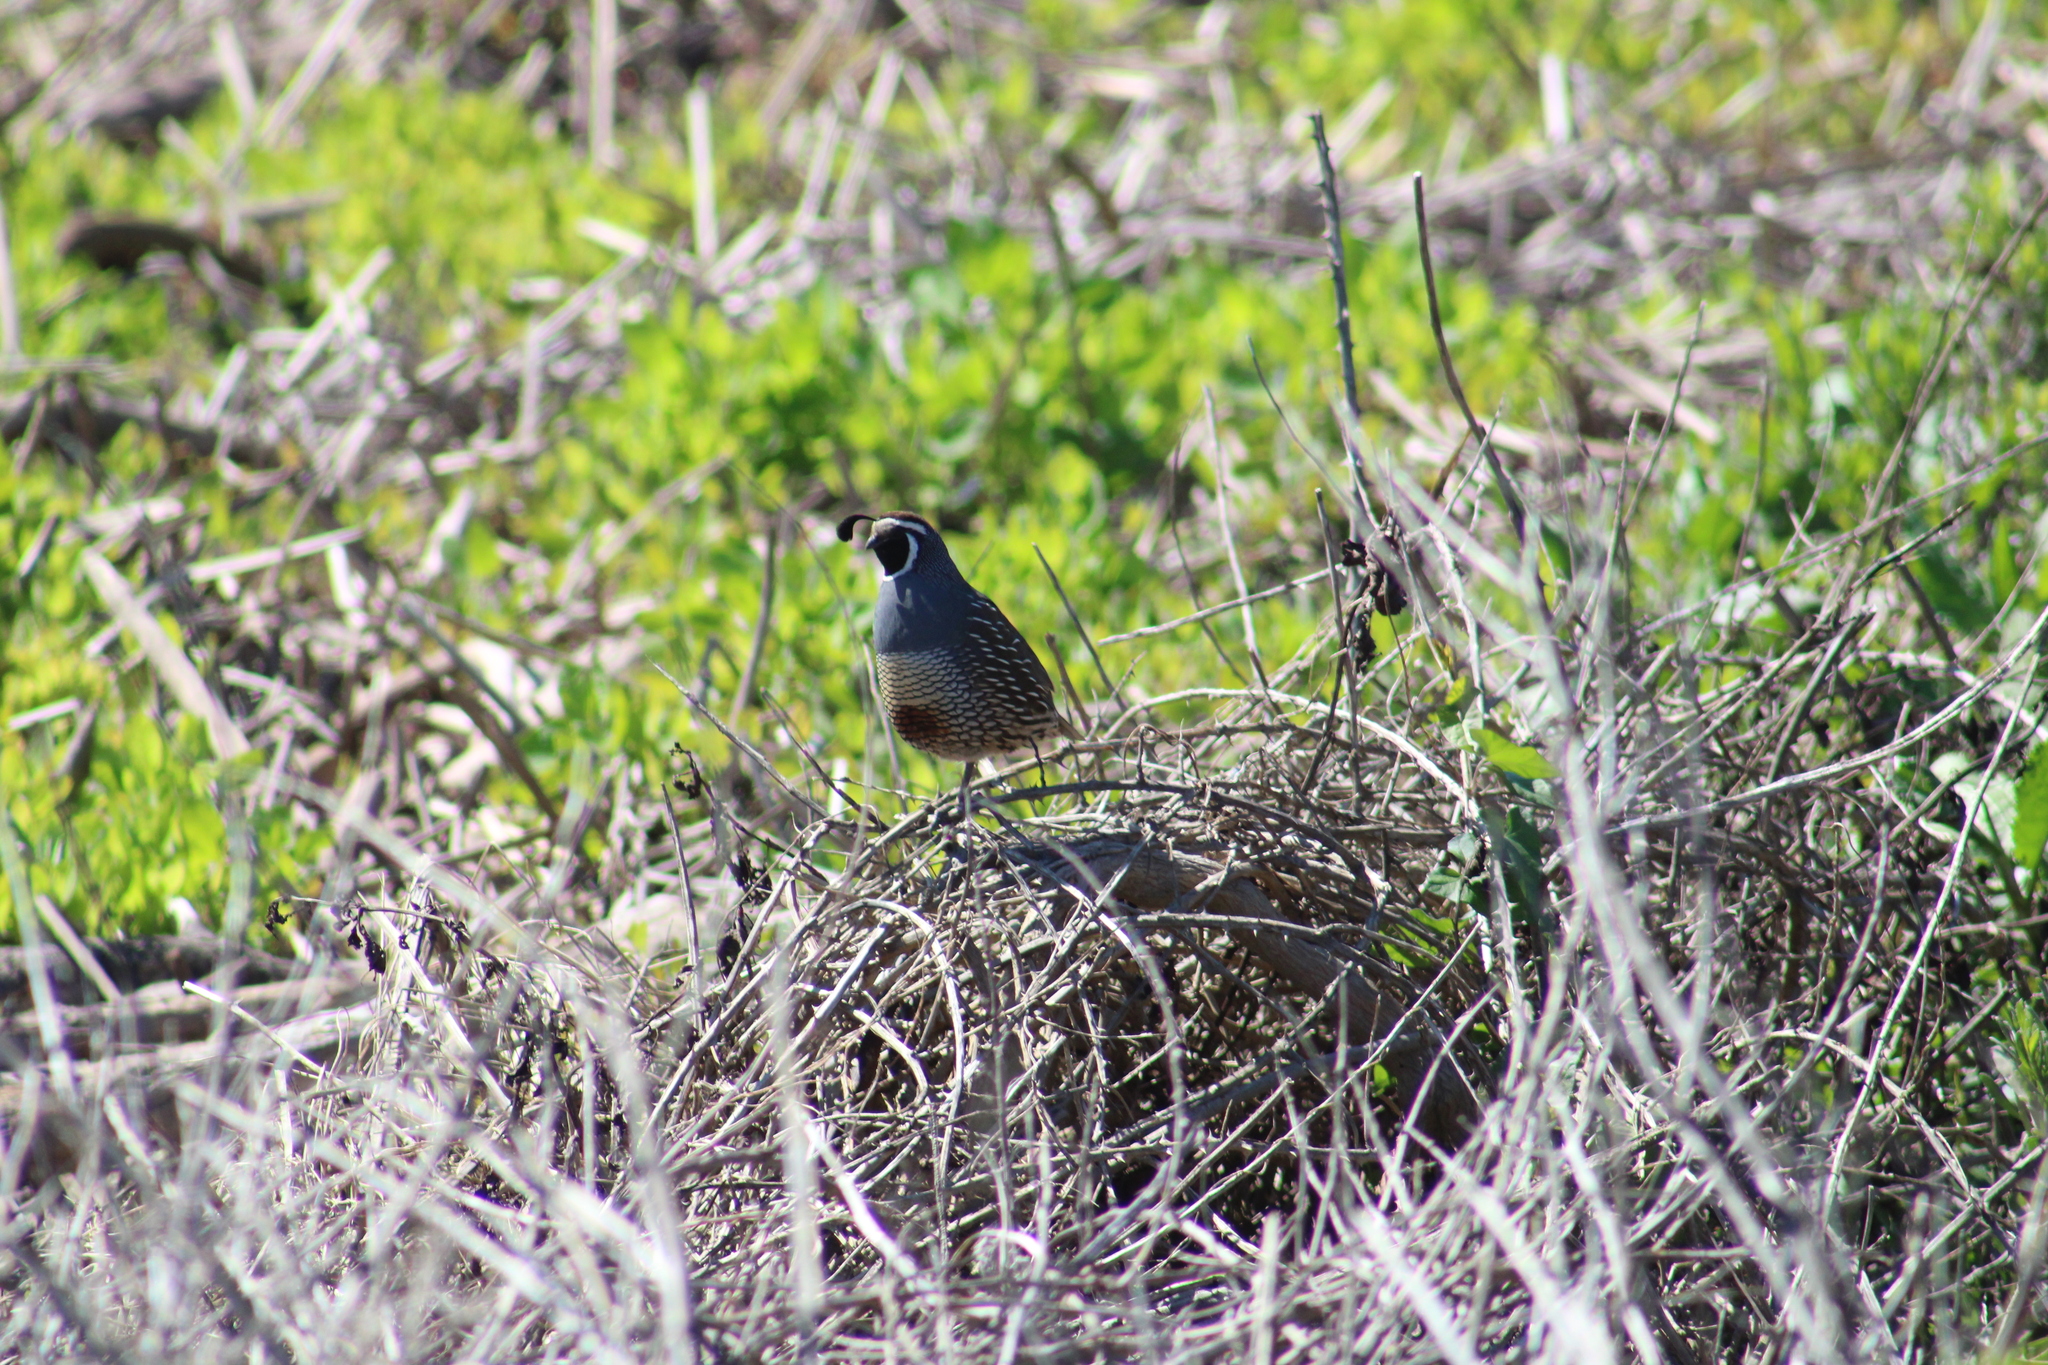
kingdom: Animalia
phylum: Chordata
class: Aves
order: Galliformes
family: Odontophoridae
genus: Callipepla
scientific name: Callipepla californica
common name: California quail
